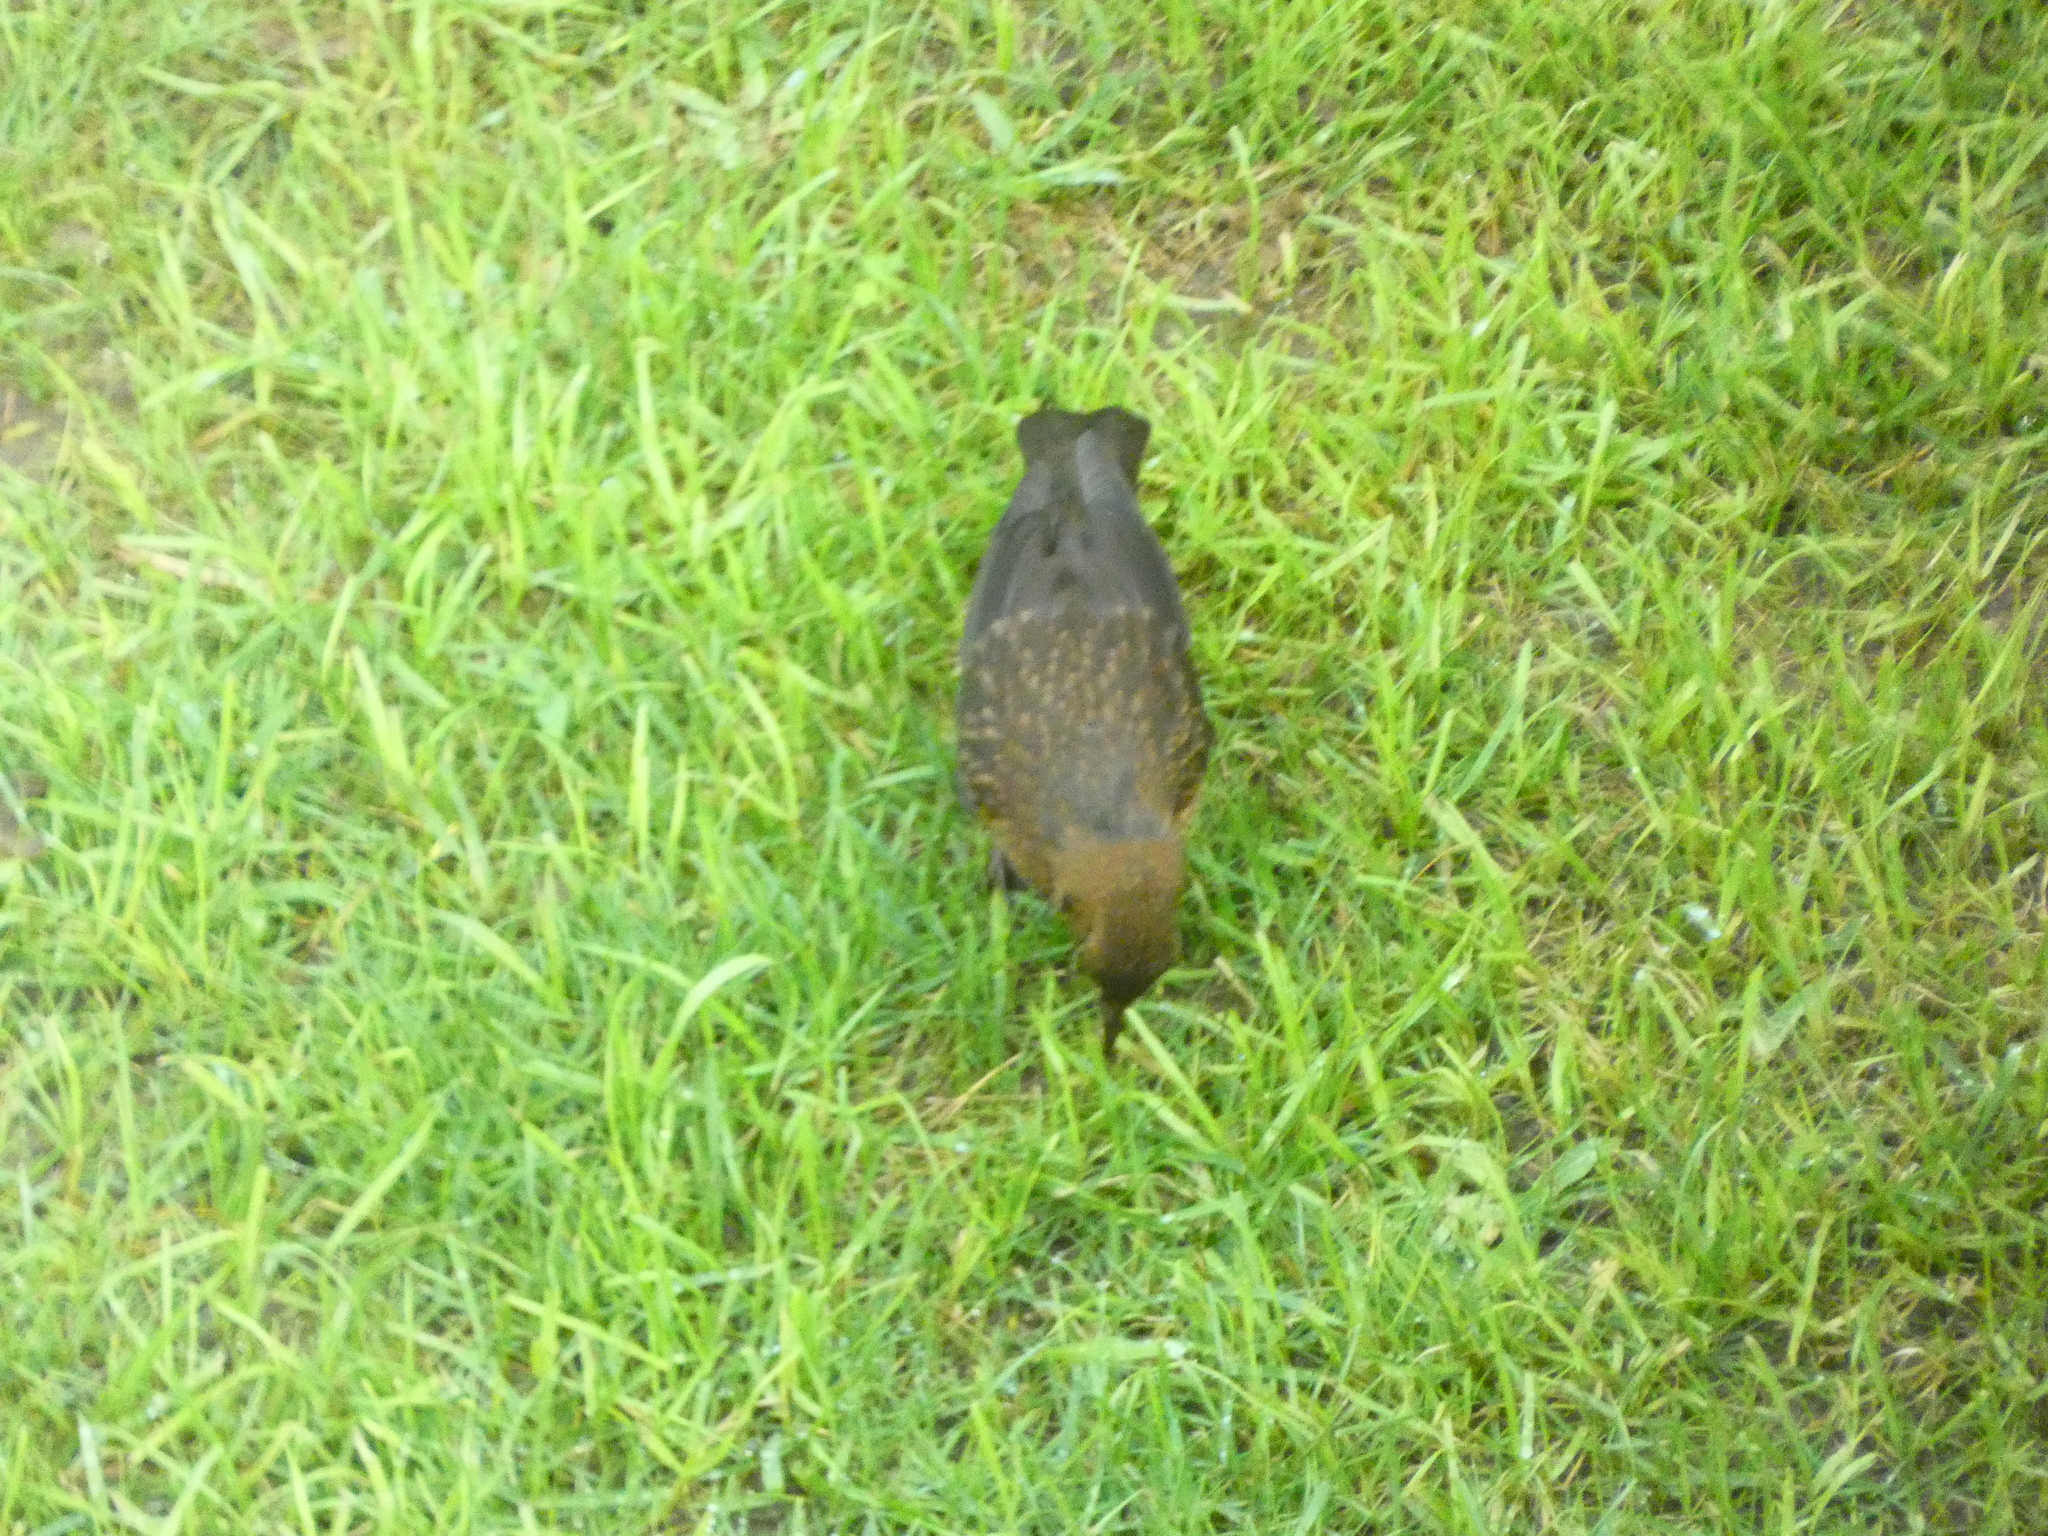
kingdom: Animalia
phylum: Chordata
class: Aves
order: Passeriformes
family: Turdidae
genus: Turdus
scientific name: Turdus merula
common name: Common blackbird
